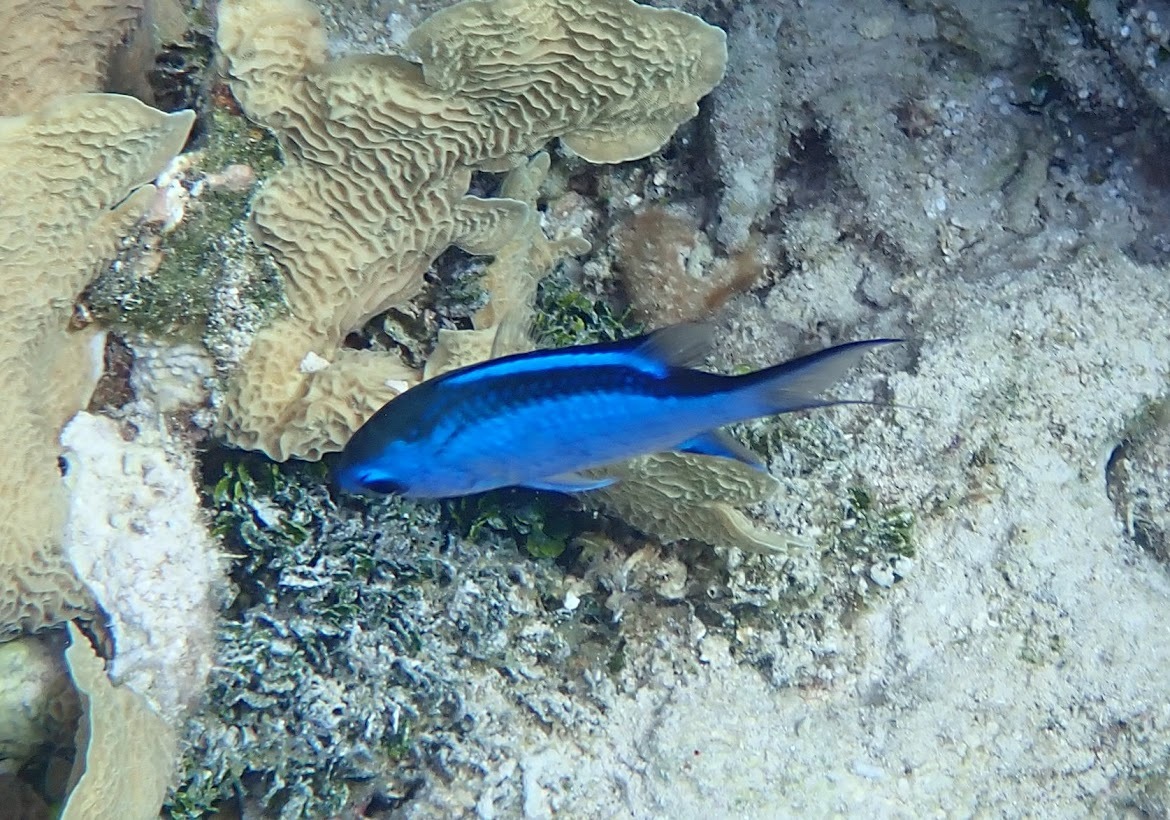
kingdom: Animalia
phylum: Chordata
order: Perciformes
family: Pomacentridae
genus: Chromis
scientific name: Chromis cyanea
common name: Blue chromis
